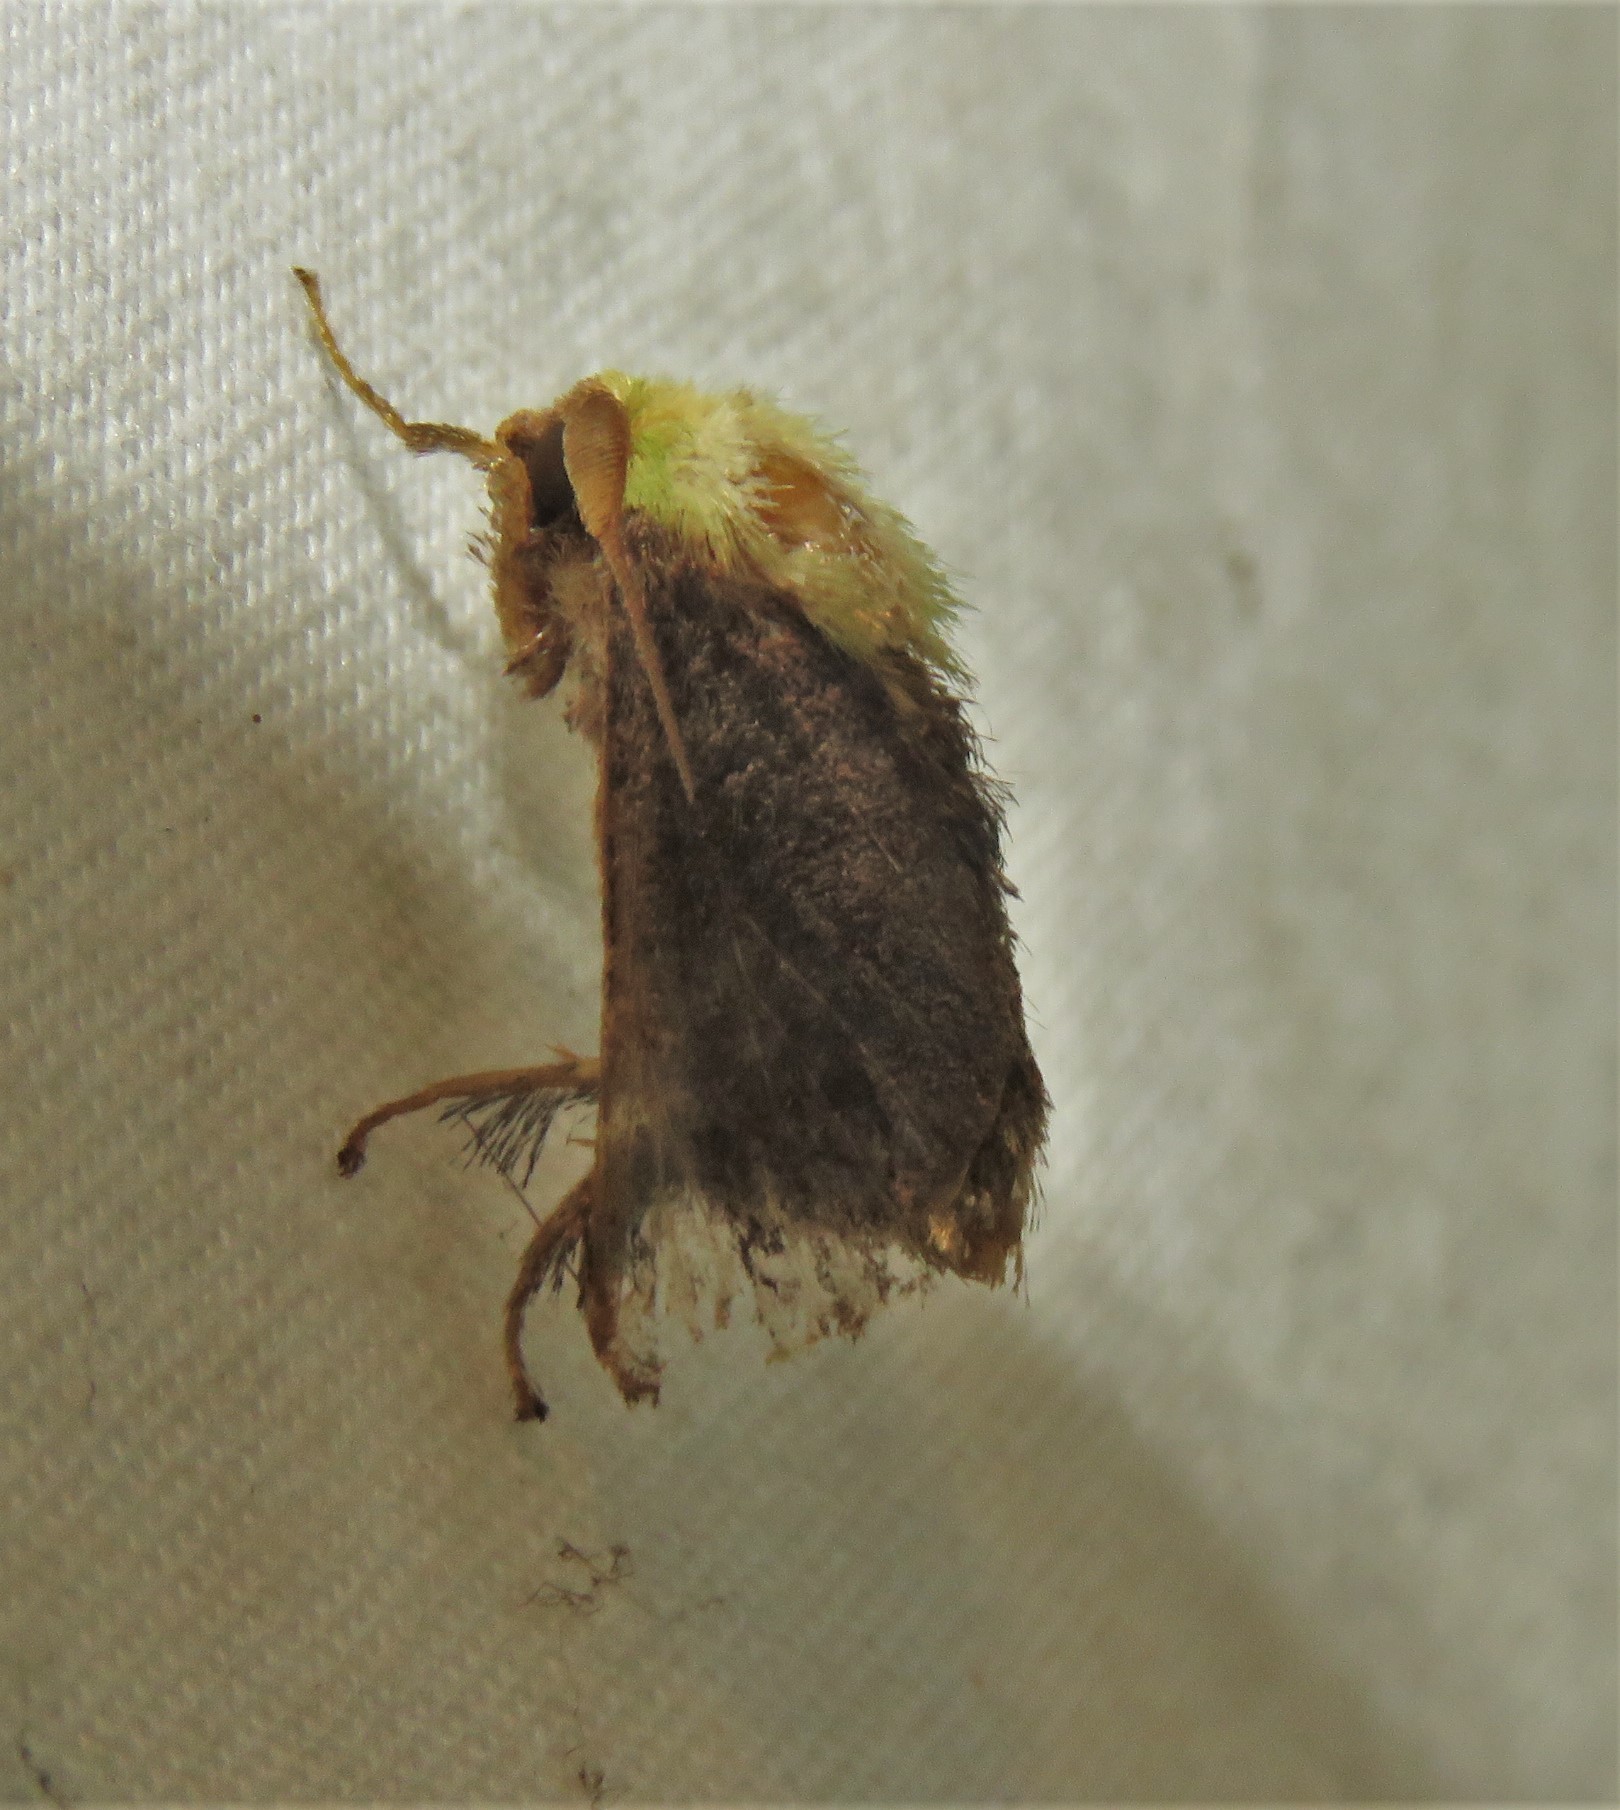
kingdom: Animalia
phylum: Arthropoda
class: Insecta
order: Lepidoptera
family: Limacodidae
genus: Parasa
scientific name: Parasa viridogrisea
